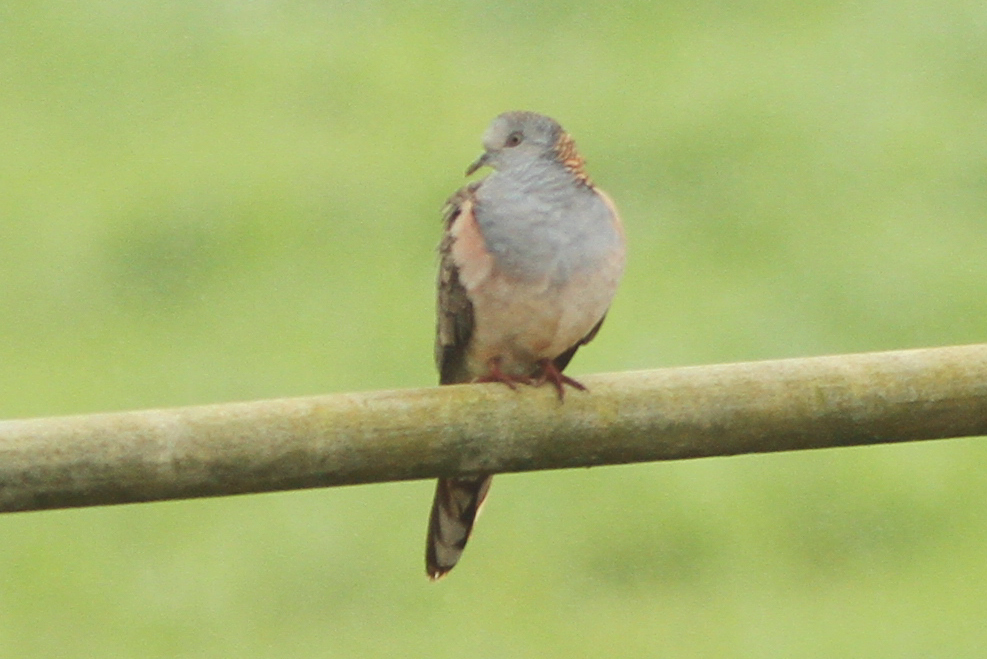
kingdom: Animalia
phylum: Chordata
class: Aves
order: Columbiformes
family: Columbidae
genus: Geopelia
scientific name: Geopelia humeralis
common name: Bar-shouldered dove
